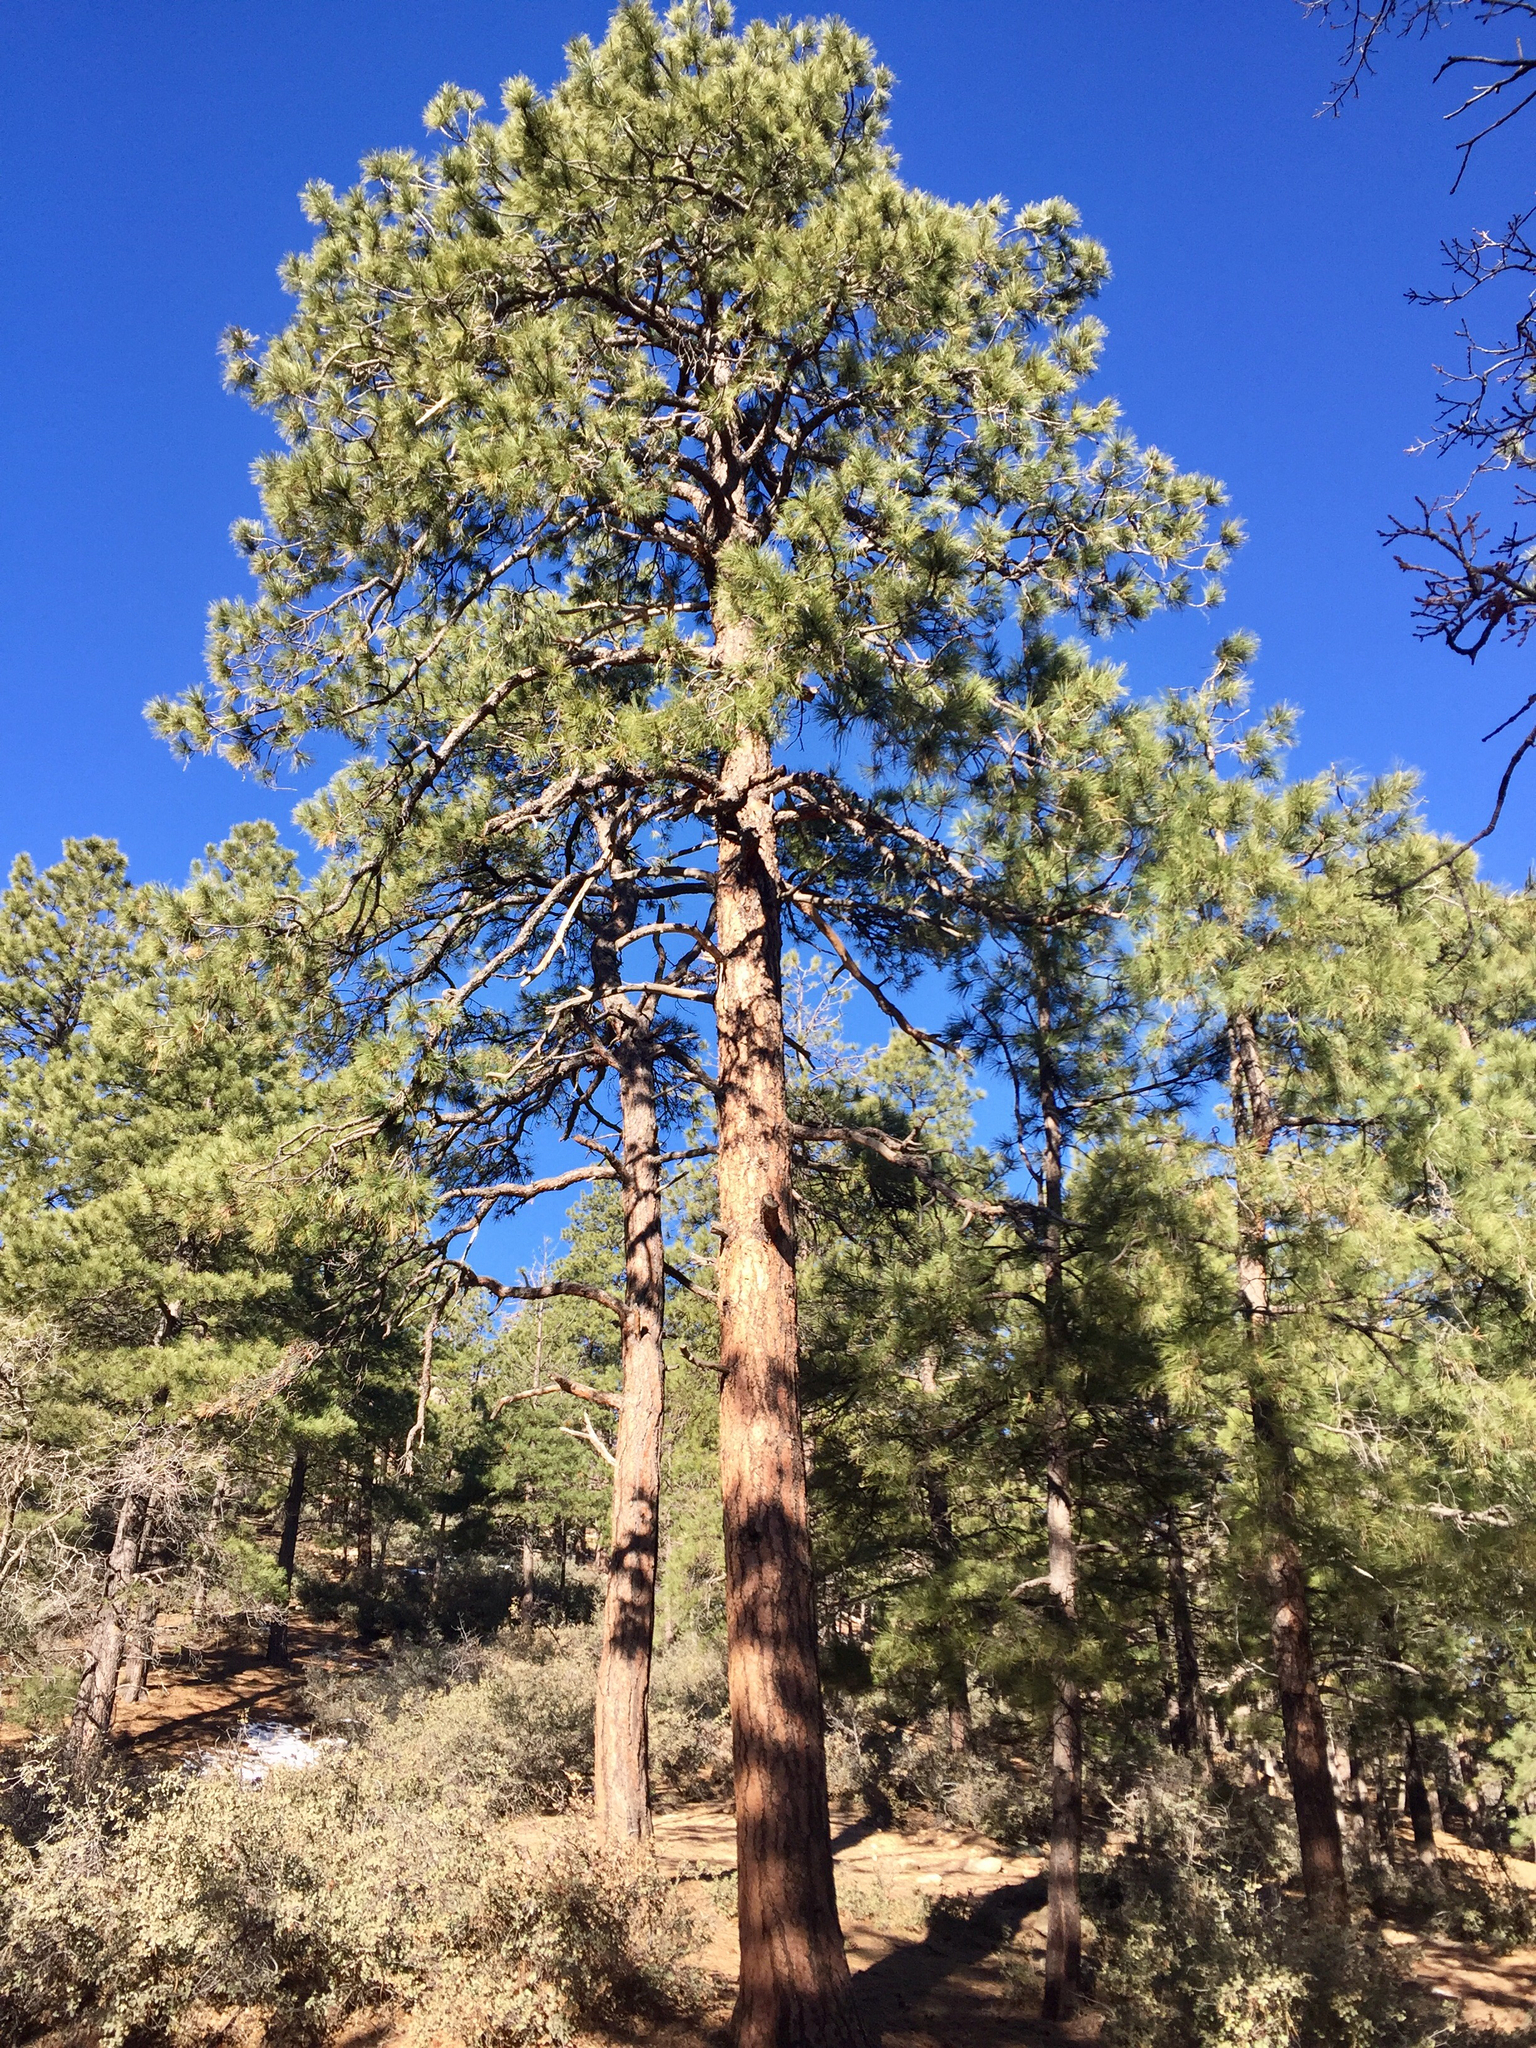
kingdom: Plantae
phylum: Tracheophyta
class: Pinopsida
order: Pinales
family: Pinaceae
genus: Pinus
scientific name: Pinus ponderosa
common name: Western yellow-pine
